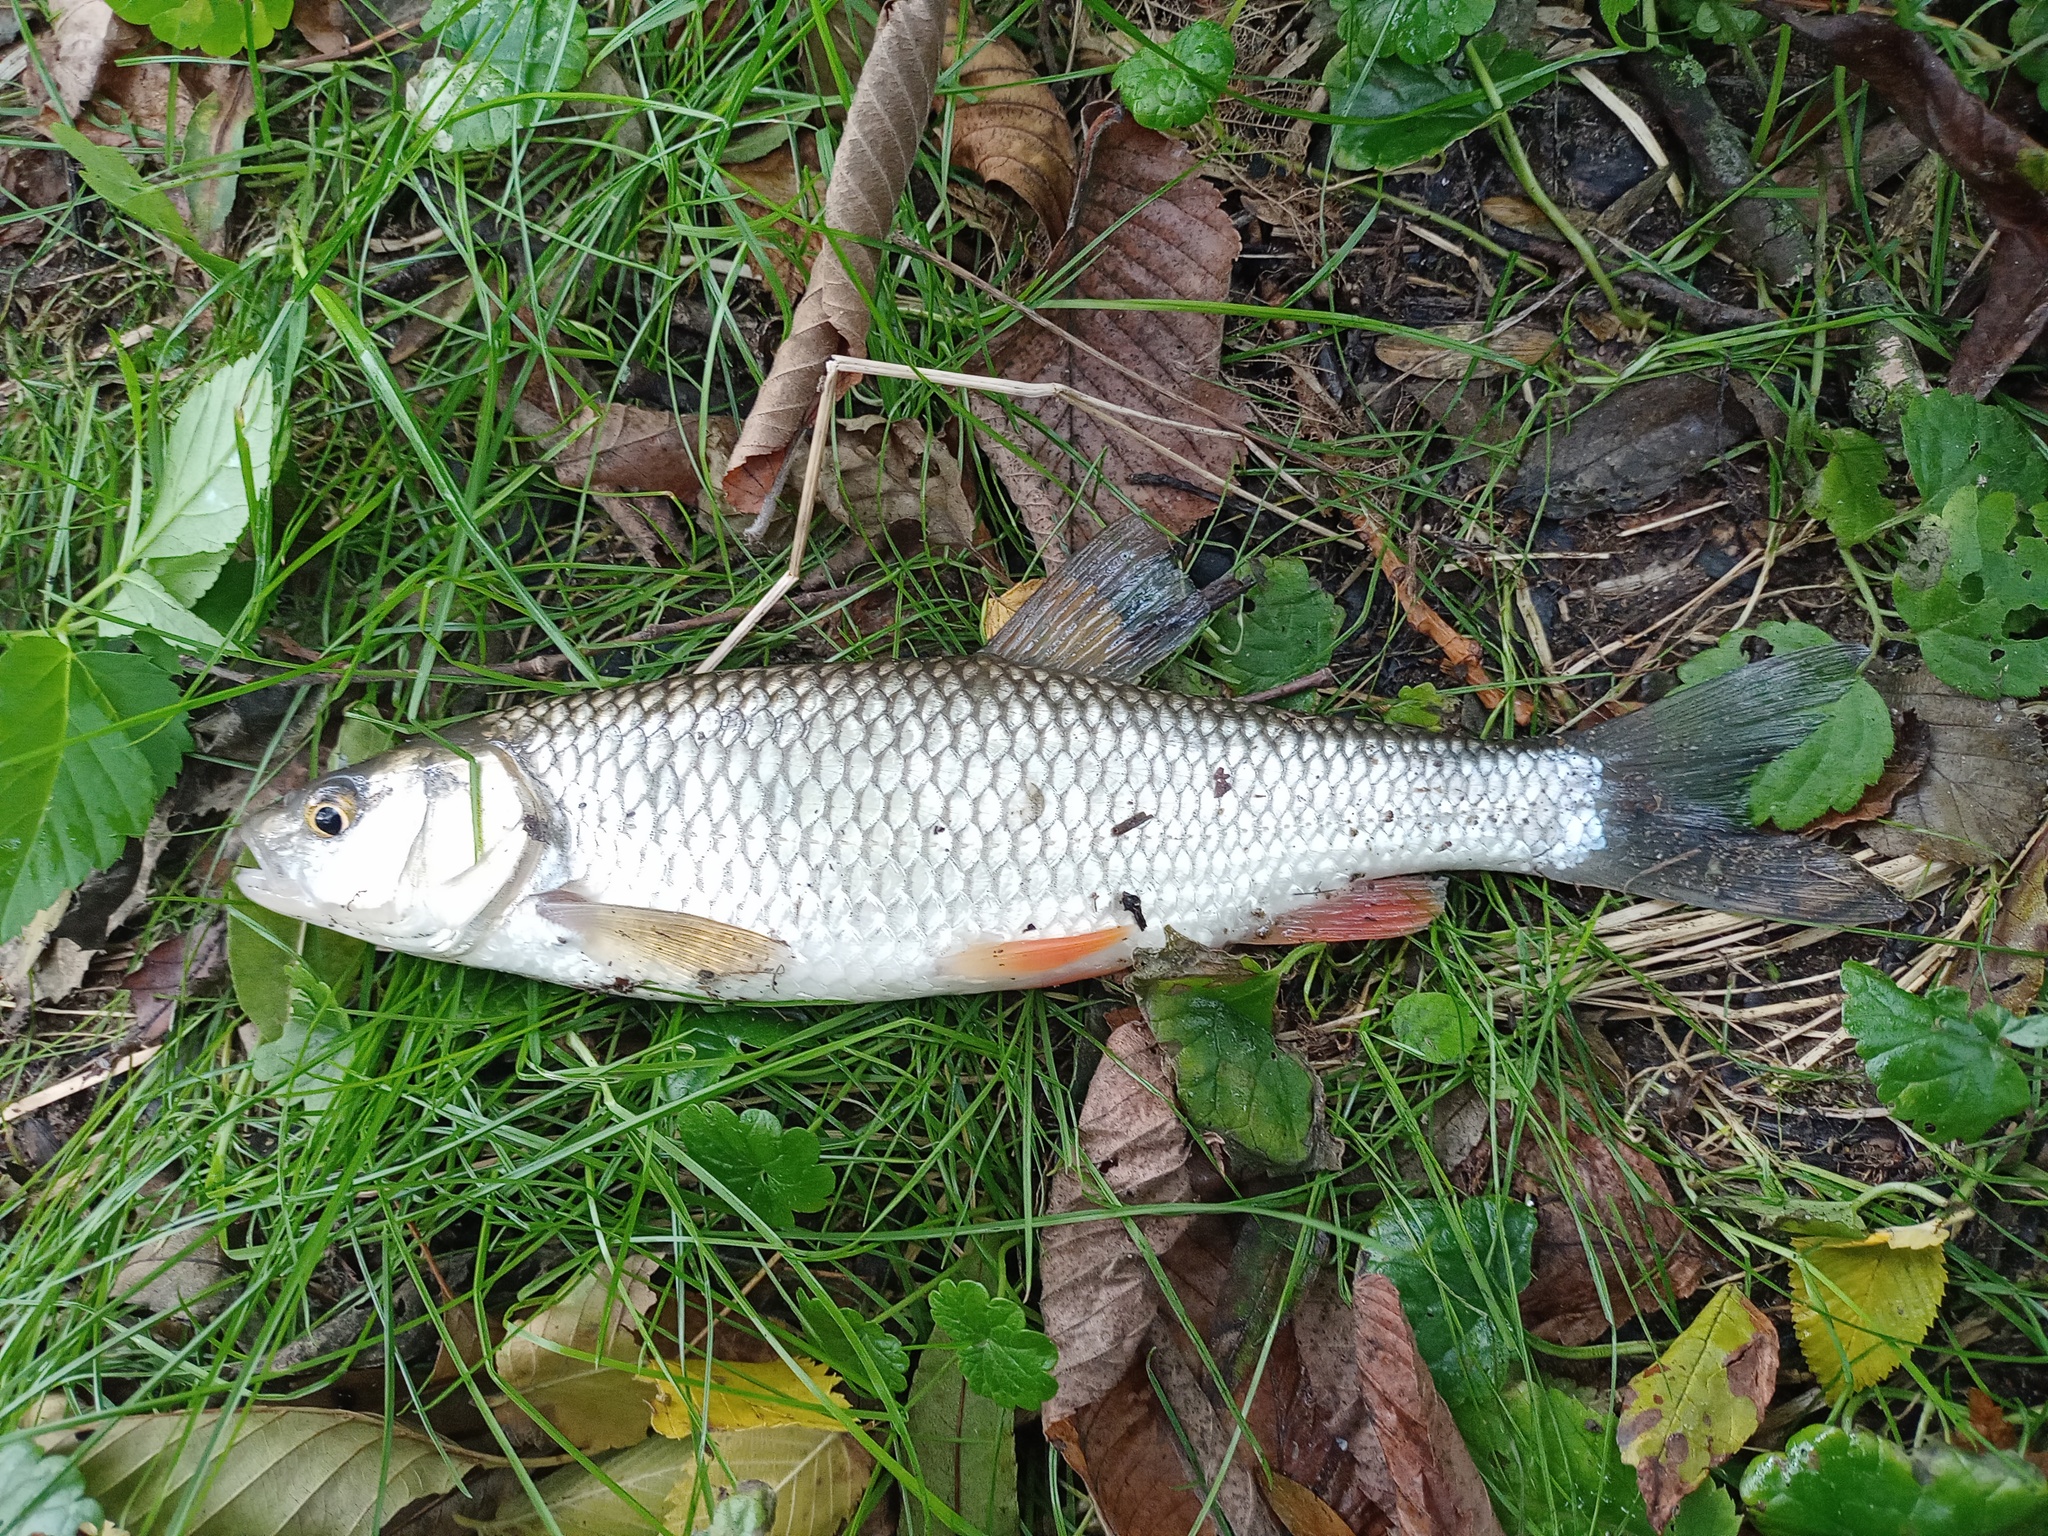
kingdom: Animalia
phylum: Chordata
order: Cypriniformes
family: Cyprinidae
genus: Squalius
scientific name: Squalius cephalus
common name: Chub
